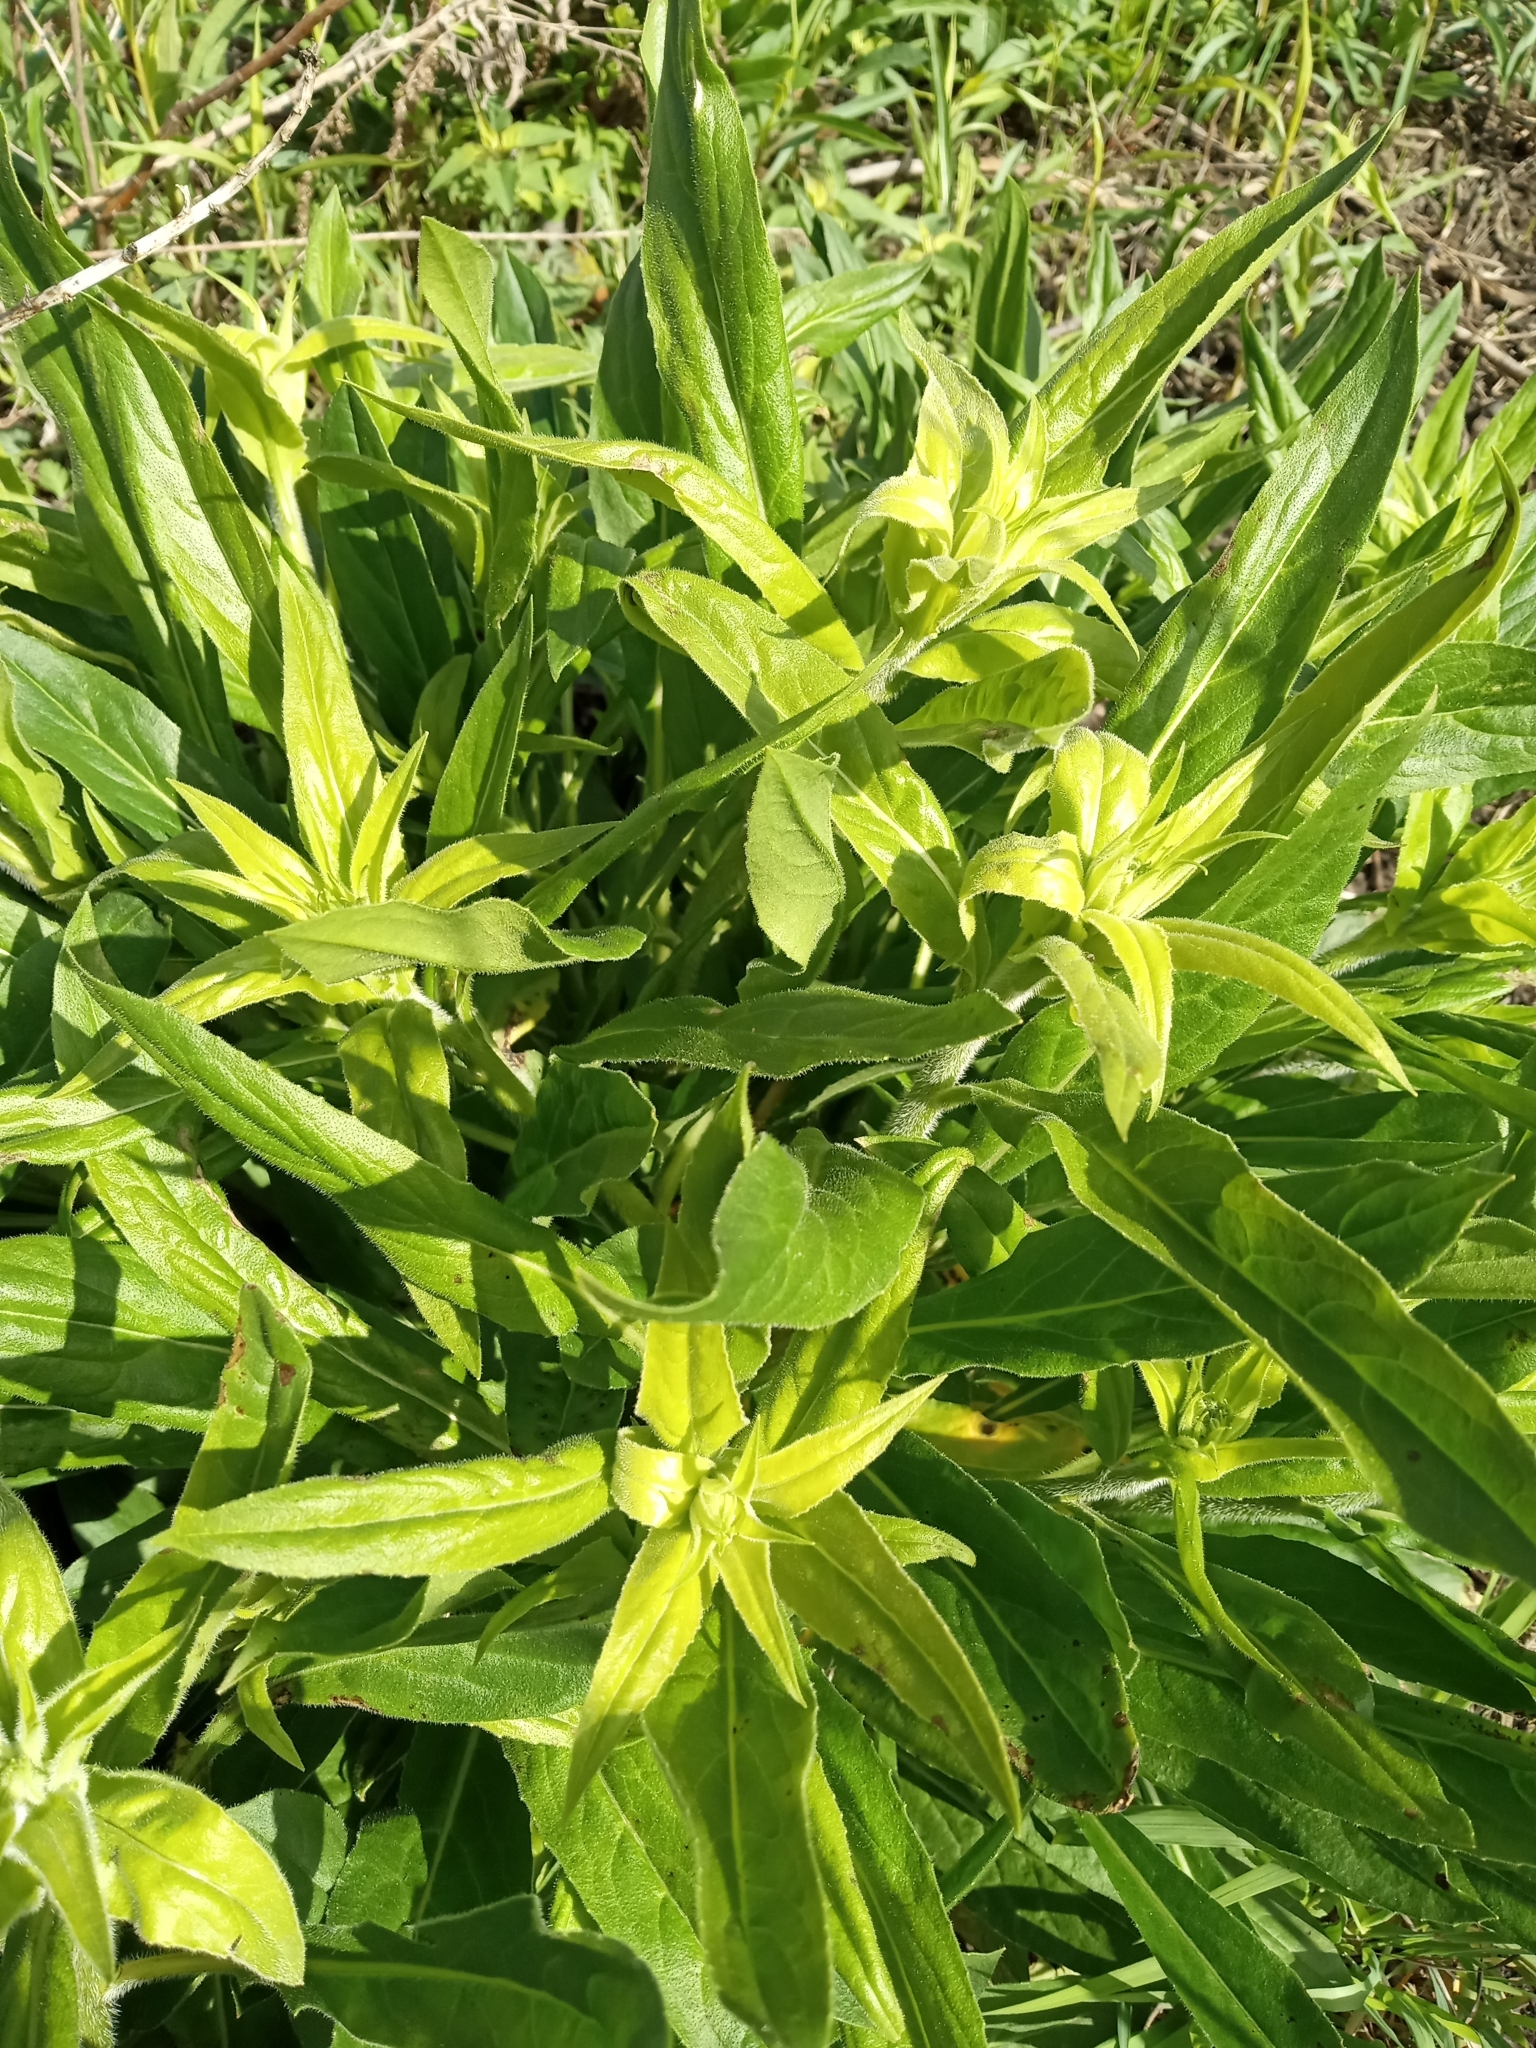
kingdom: Plantae
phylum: Tracheophyta
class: Magnoliopsida
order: Brassicales
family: Brassicaceae
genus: Hesperis
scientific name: Hesperis matronalis
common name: Dame's-violet
